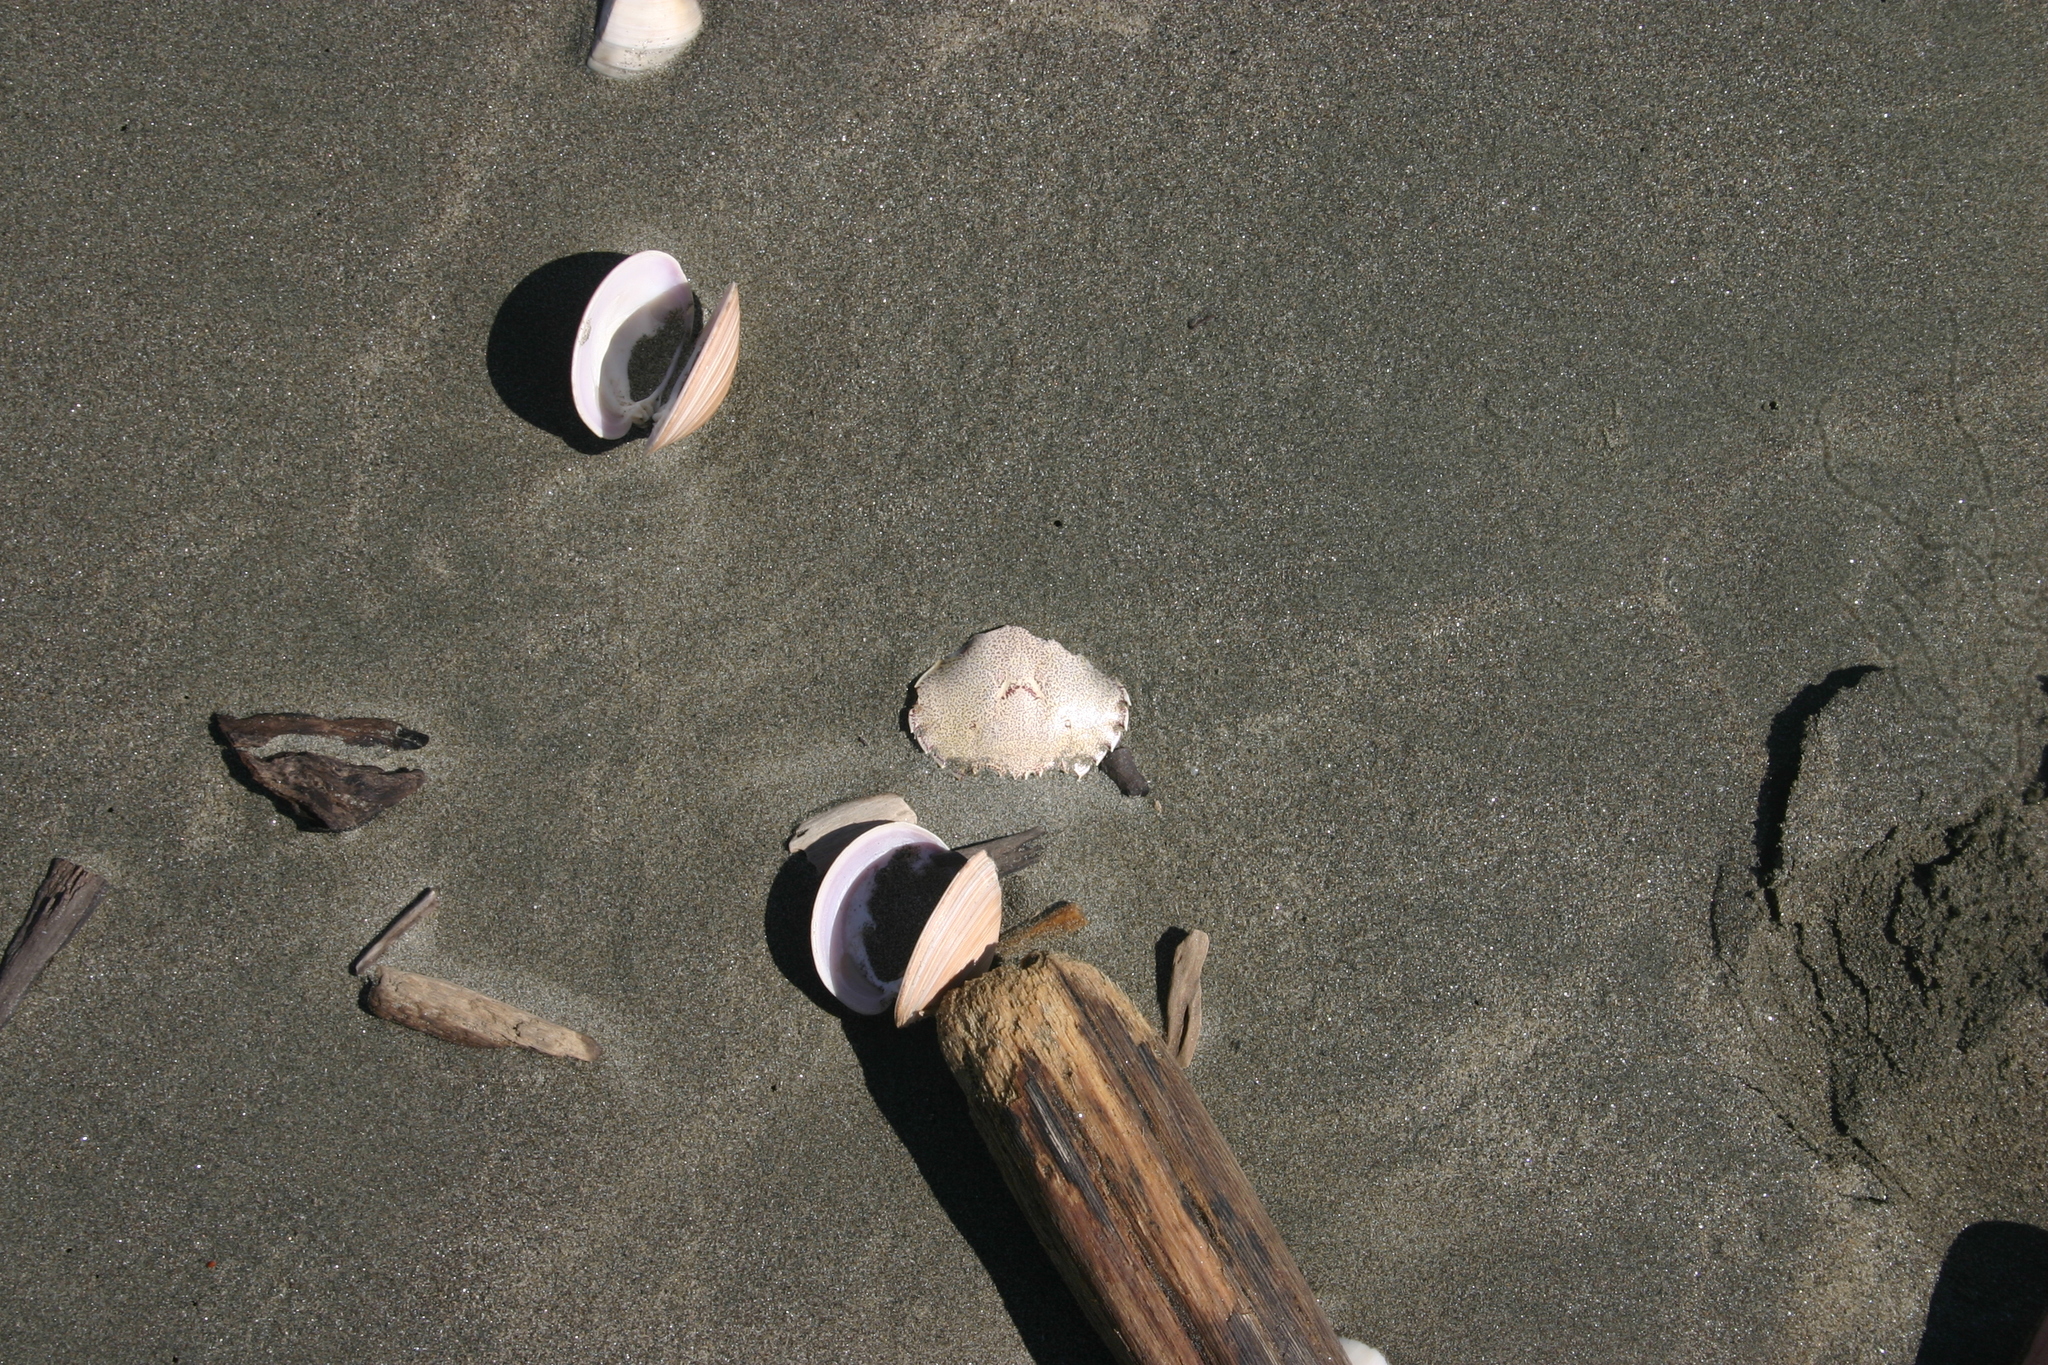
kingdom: Animalia
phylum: Arthropoda
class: Malacostraca
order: Decapoda
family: Ovalipidae
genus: Ovalipes
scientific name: Ovalipes catharus
